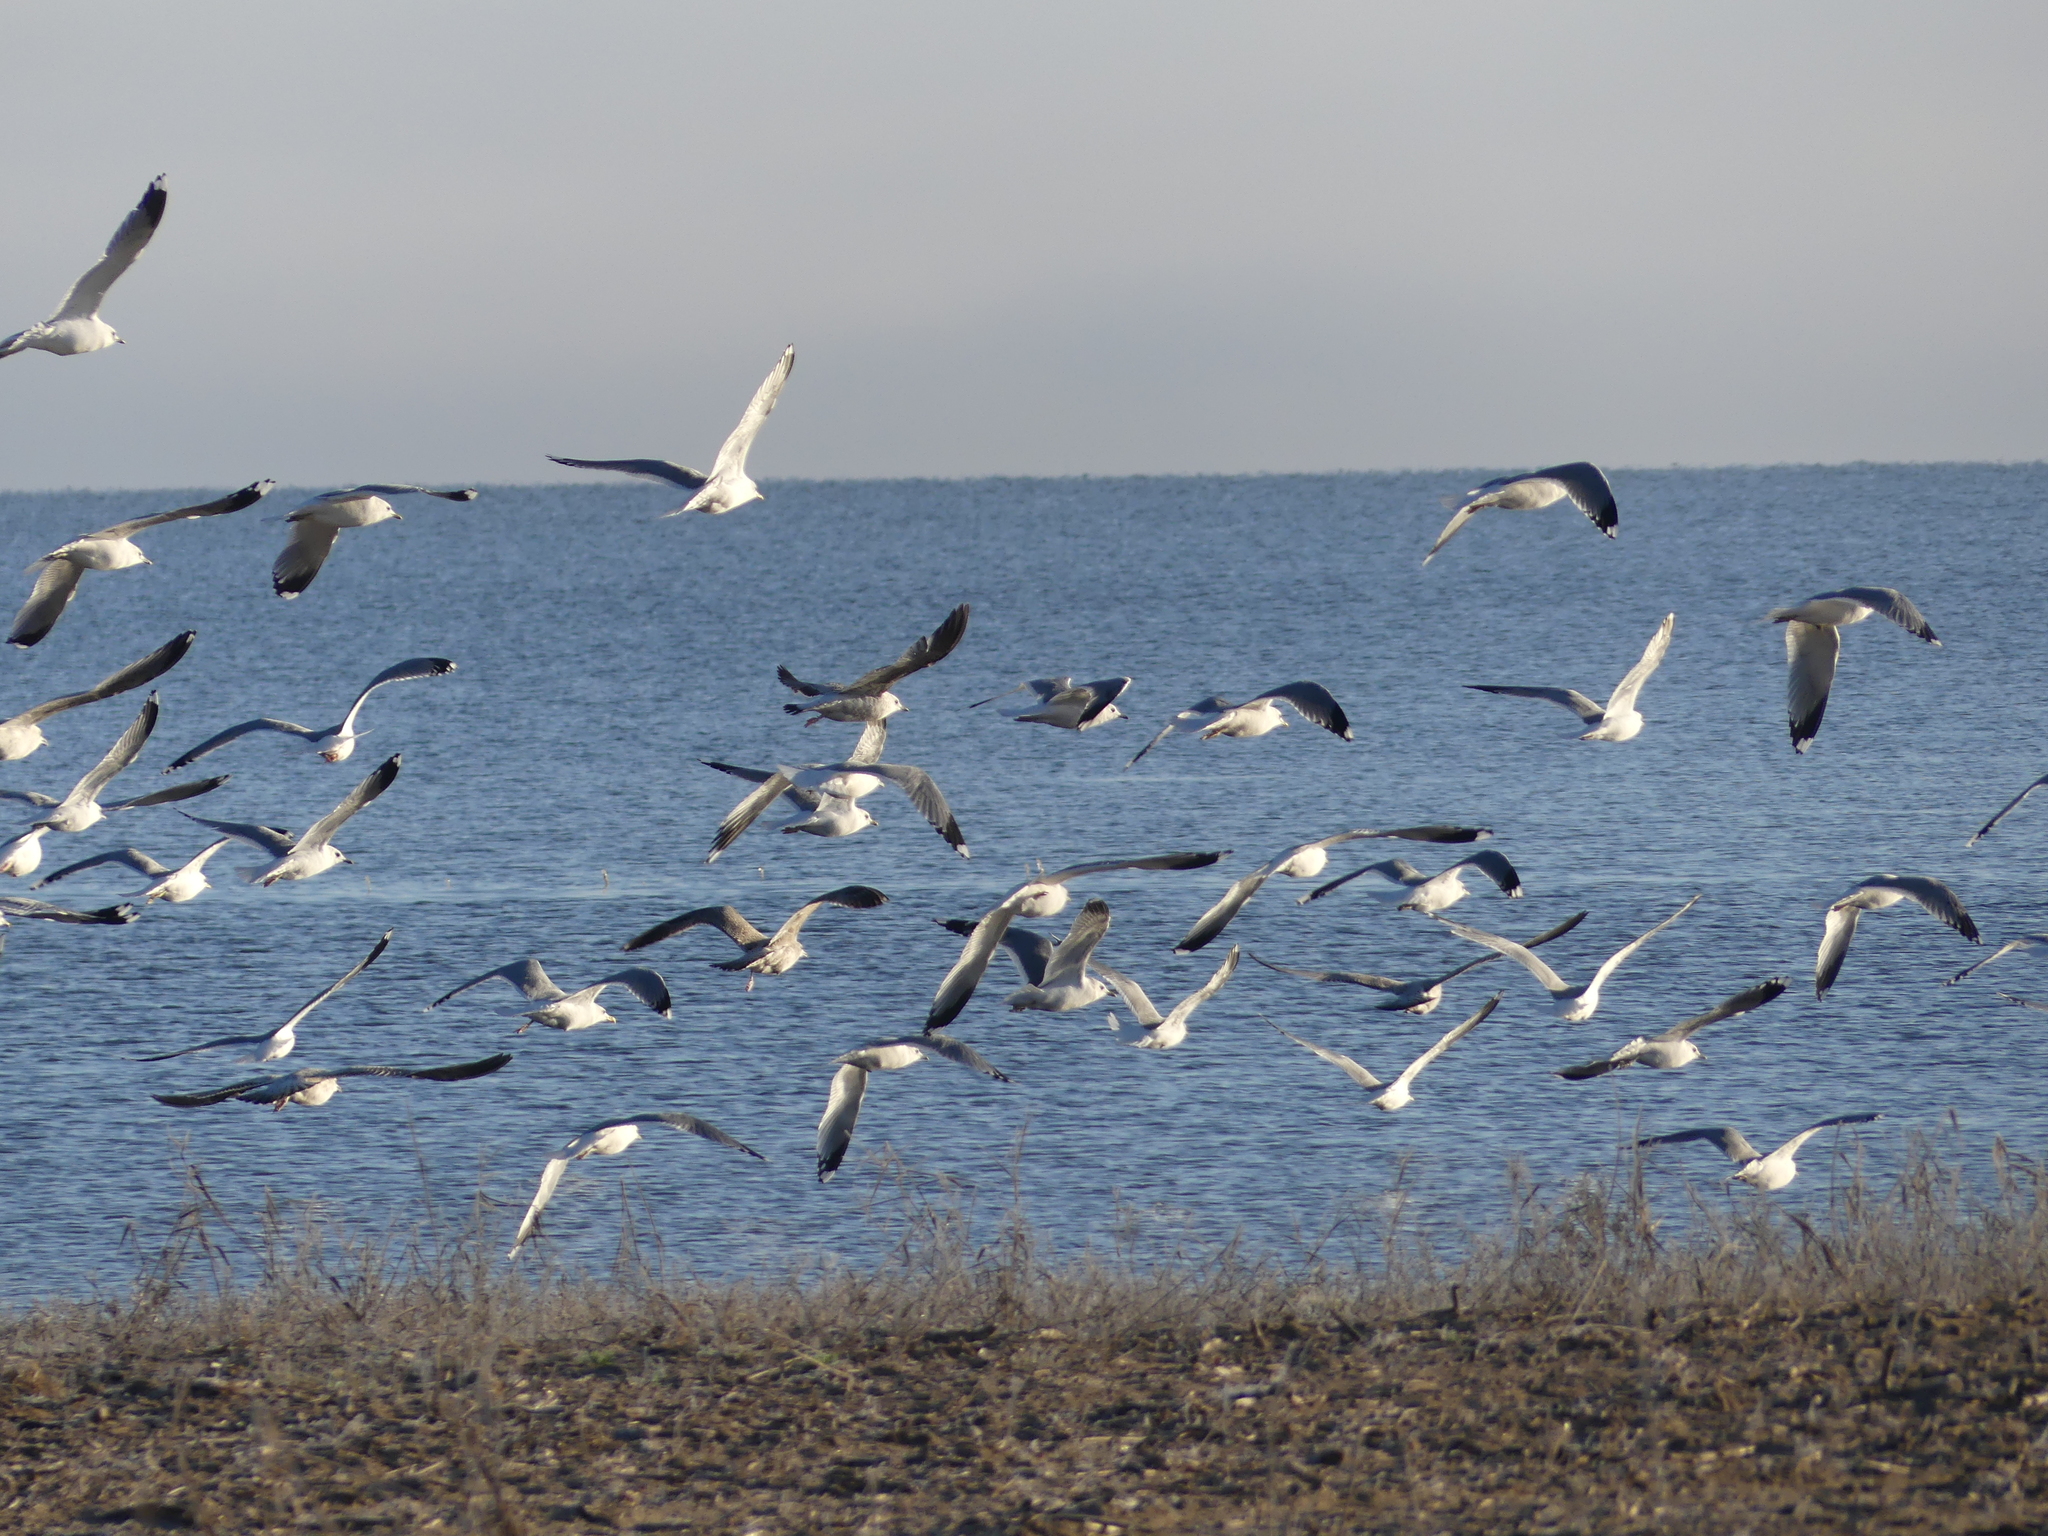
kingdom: Animalia
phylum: Chordata
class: Aves
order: Charadriiformes
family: Laridae
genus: Larus
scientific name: Larus canus
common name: Mew gull
